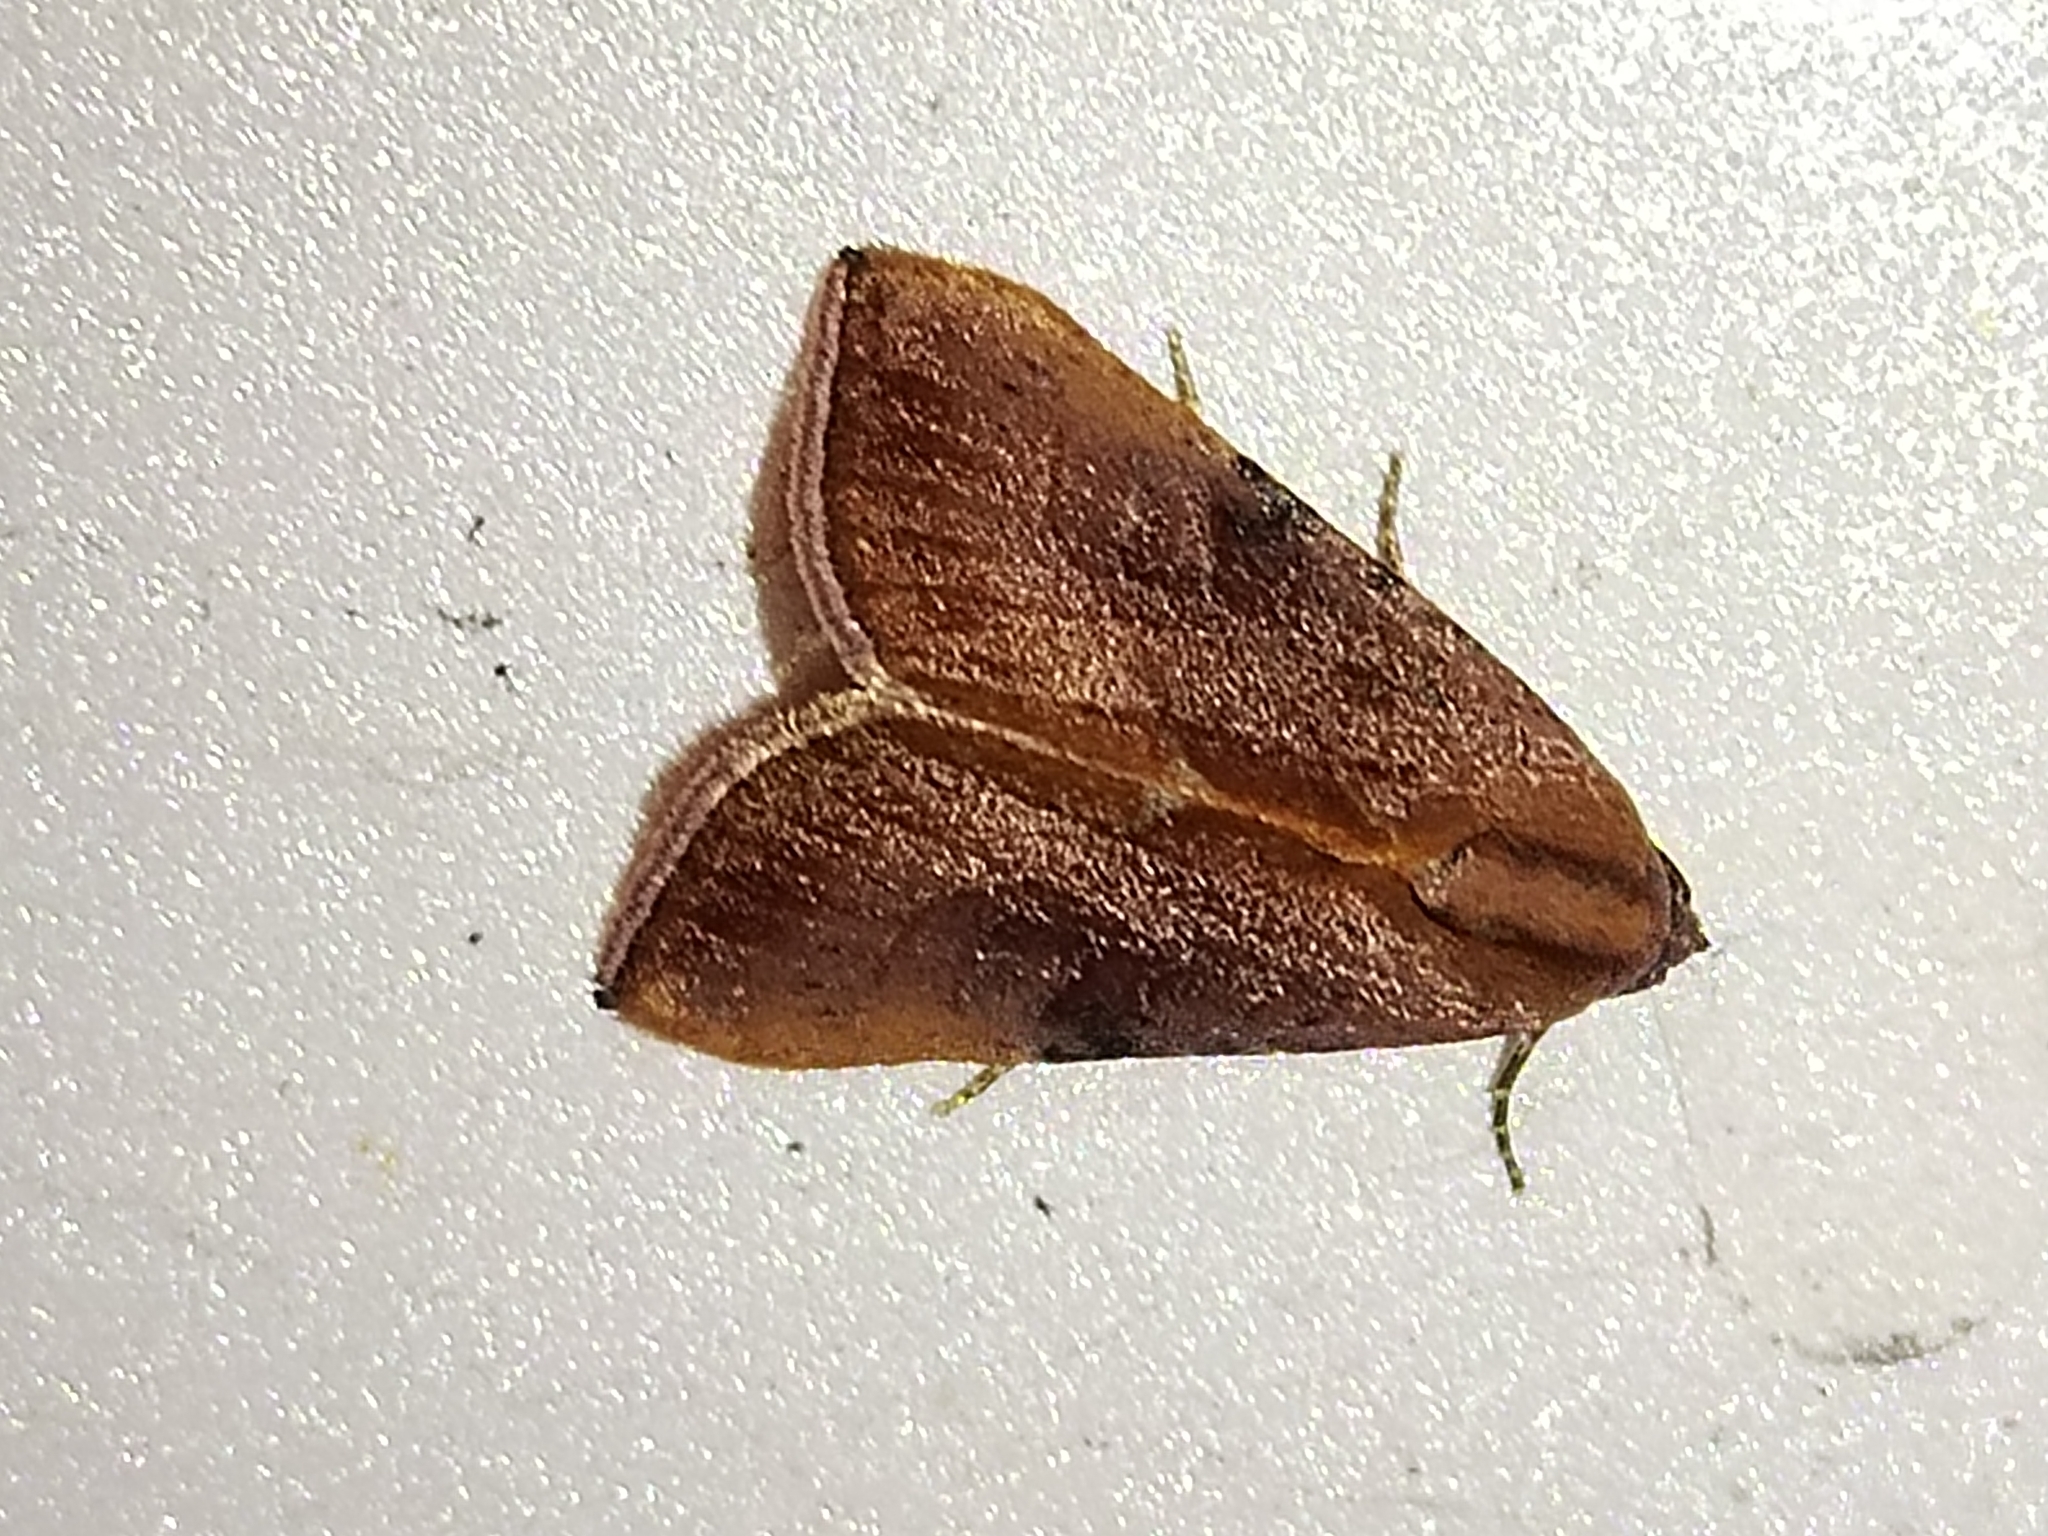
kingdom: Animalia
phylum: Arthropoda
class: Insecta
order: Lepidoptera
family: Noctuidae
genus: Galgula
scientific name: Galgula partita
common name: Wedgeling
